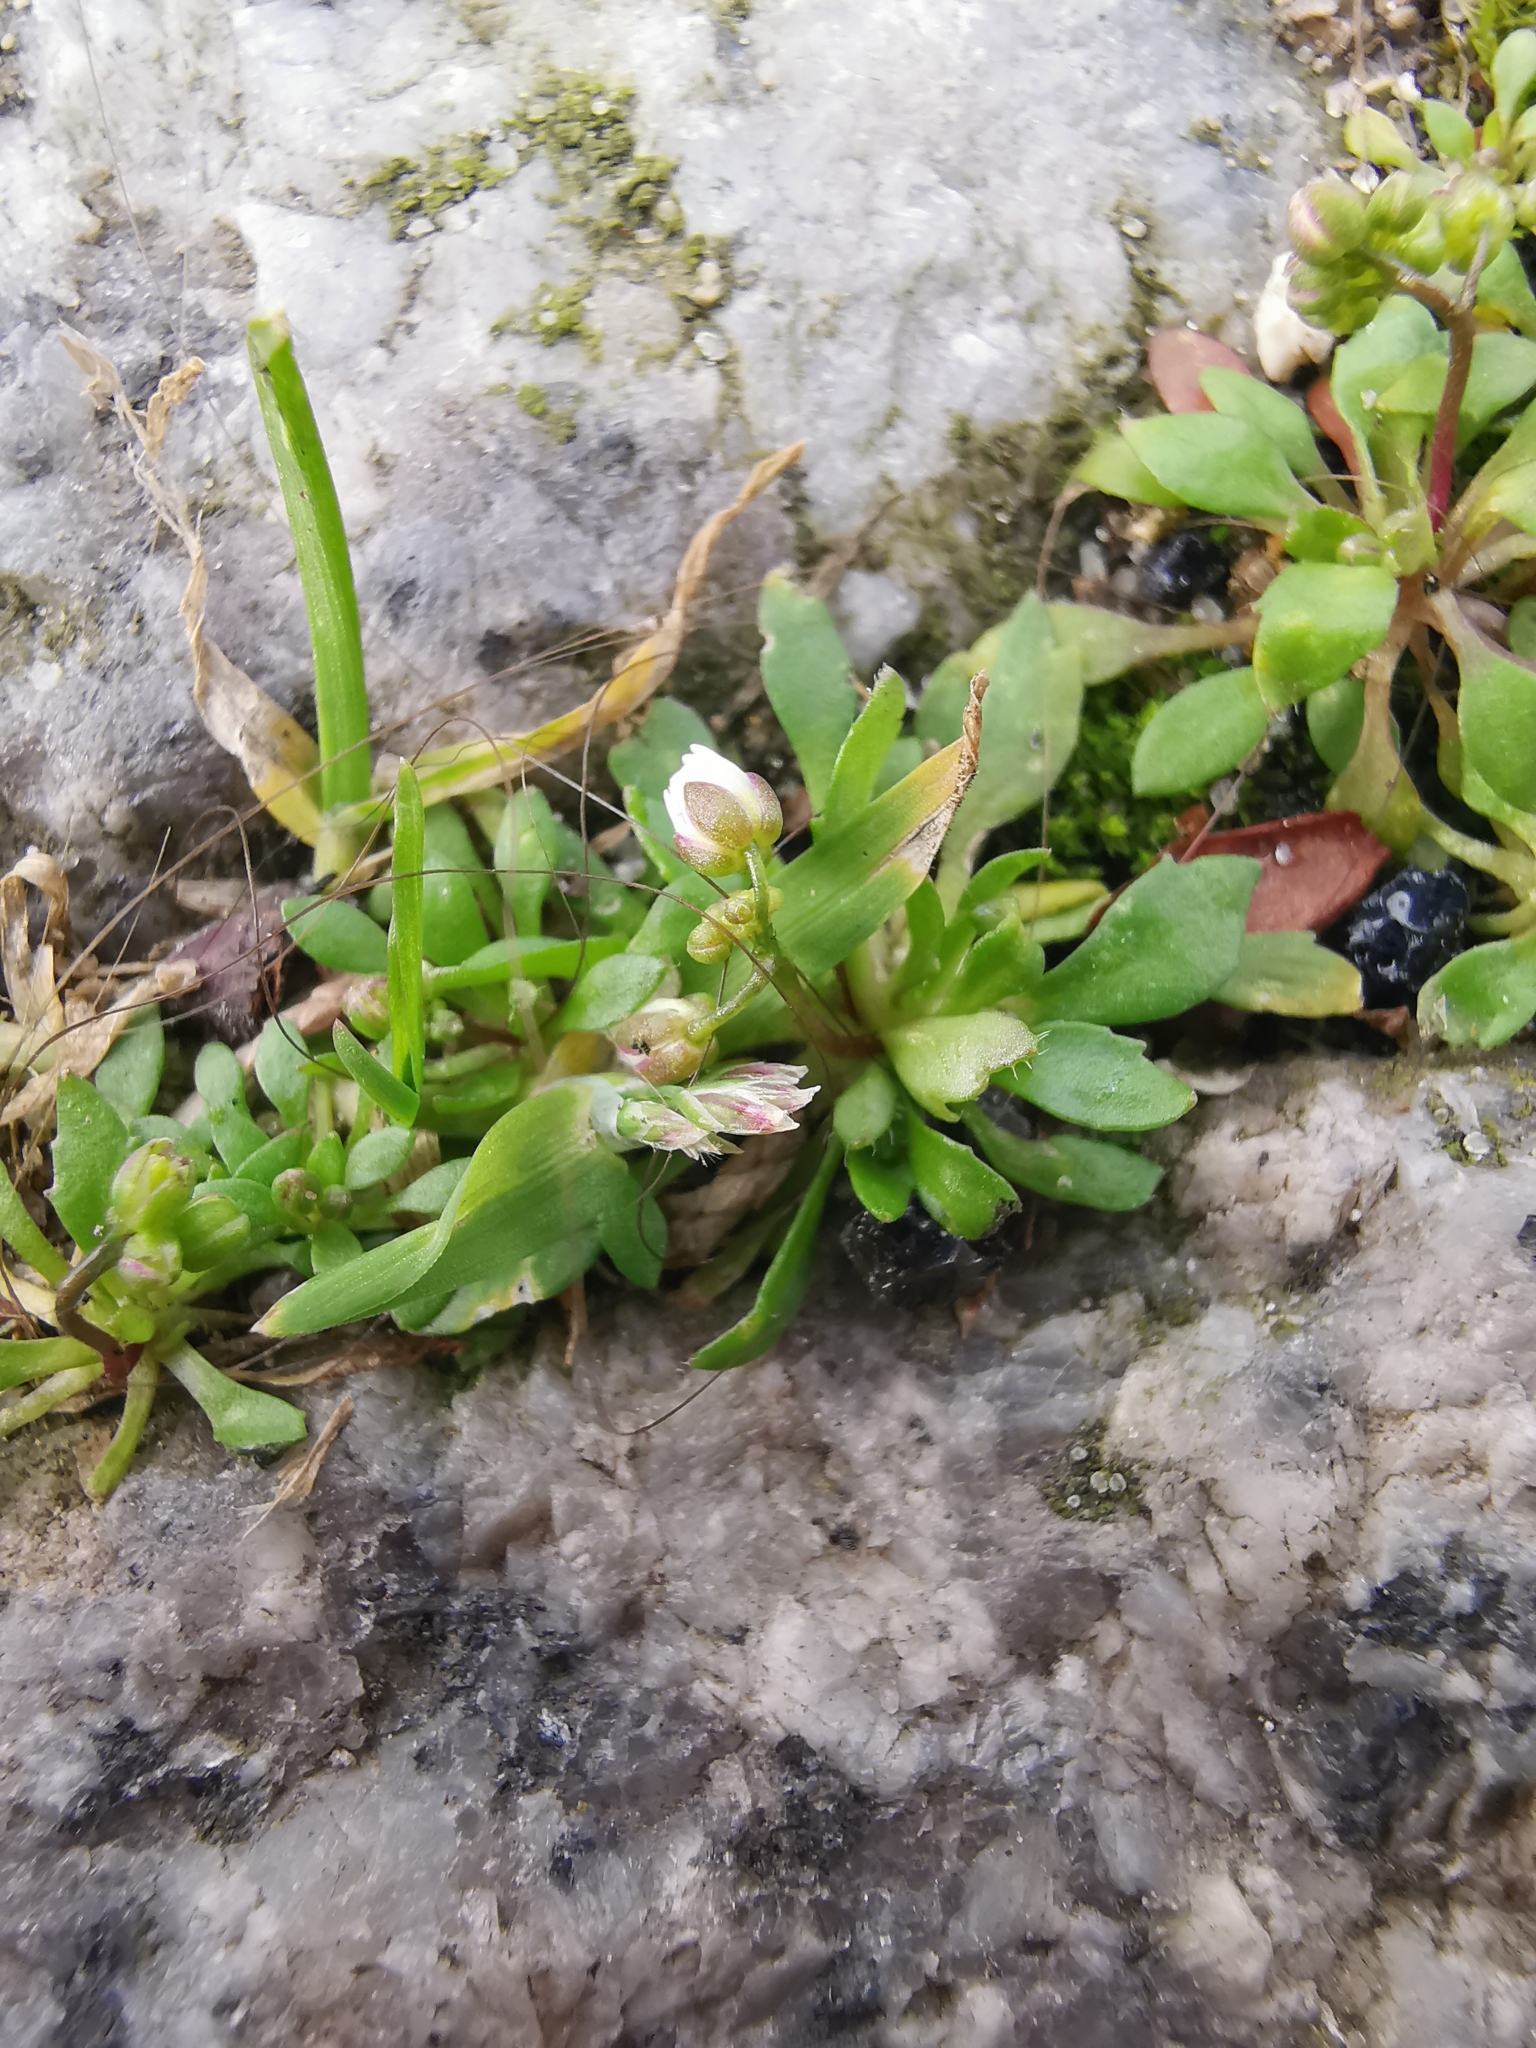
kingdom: Plantae
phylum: Tracheophyta
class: Magnoliopsida
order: Brassicales
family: Brassicaceae
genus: Draba
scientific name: Draba verna
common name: Spring draba
